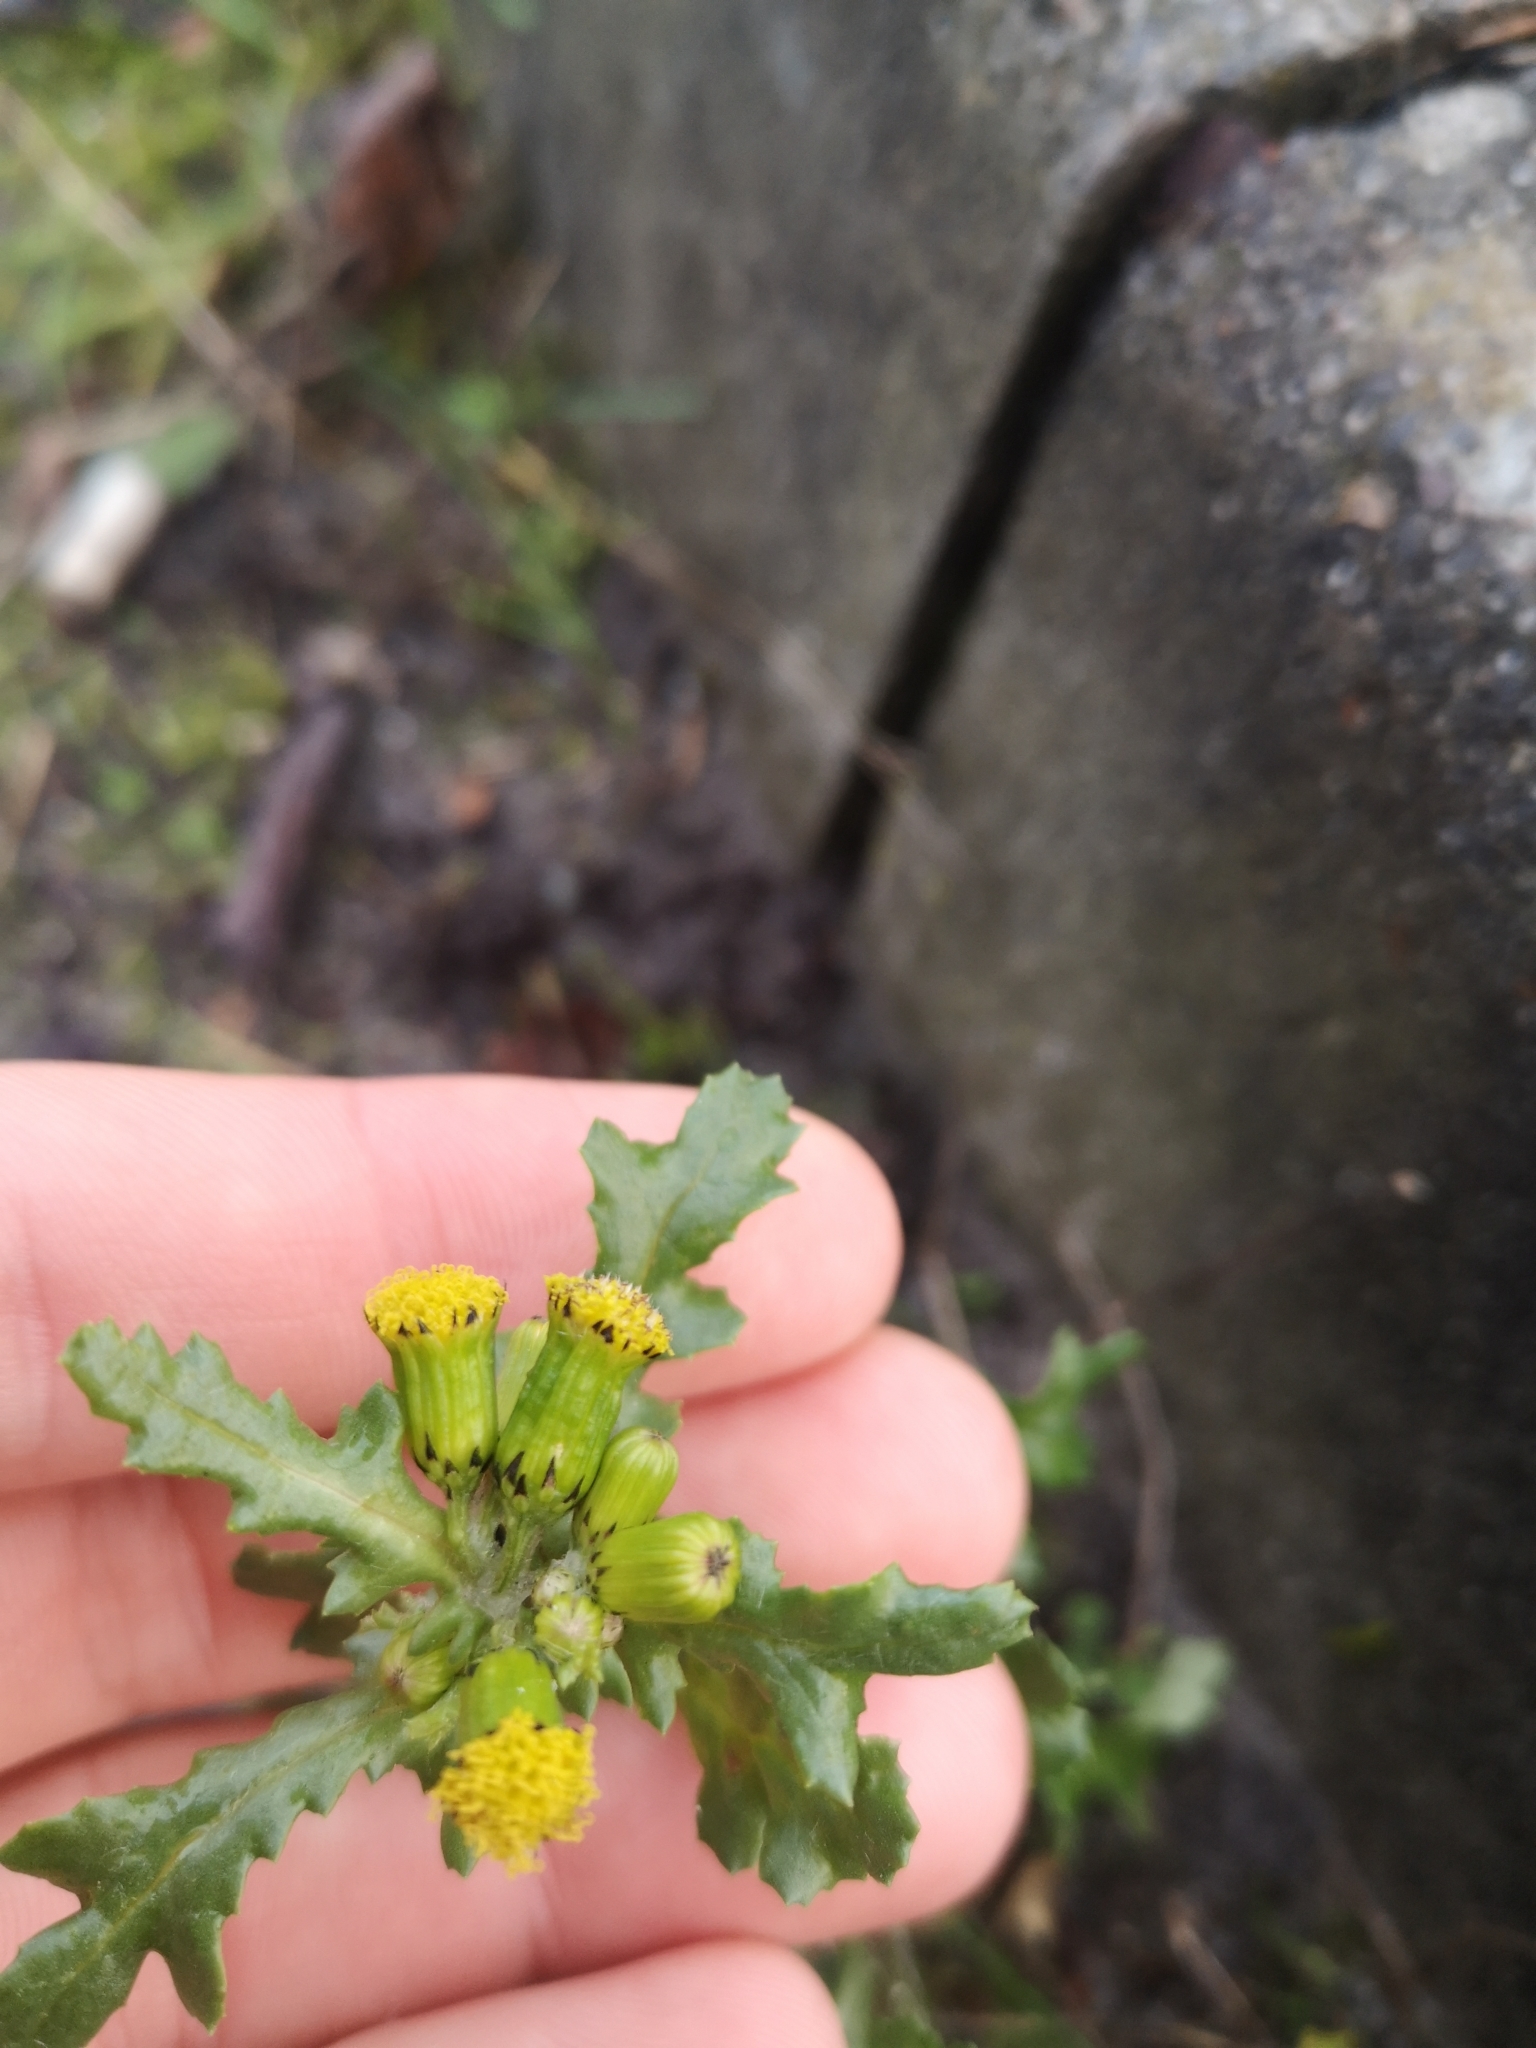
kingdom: Plantae
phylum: Tracheophyta
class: Magnoliopsida
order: Asterales
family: Asteraceae
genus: Senecio
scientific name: Senecio vulgaris
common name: Old-man-in-the-spring
